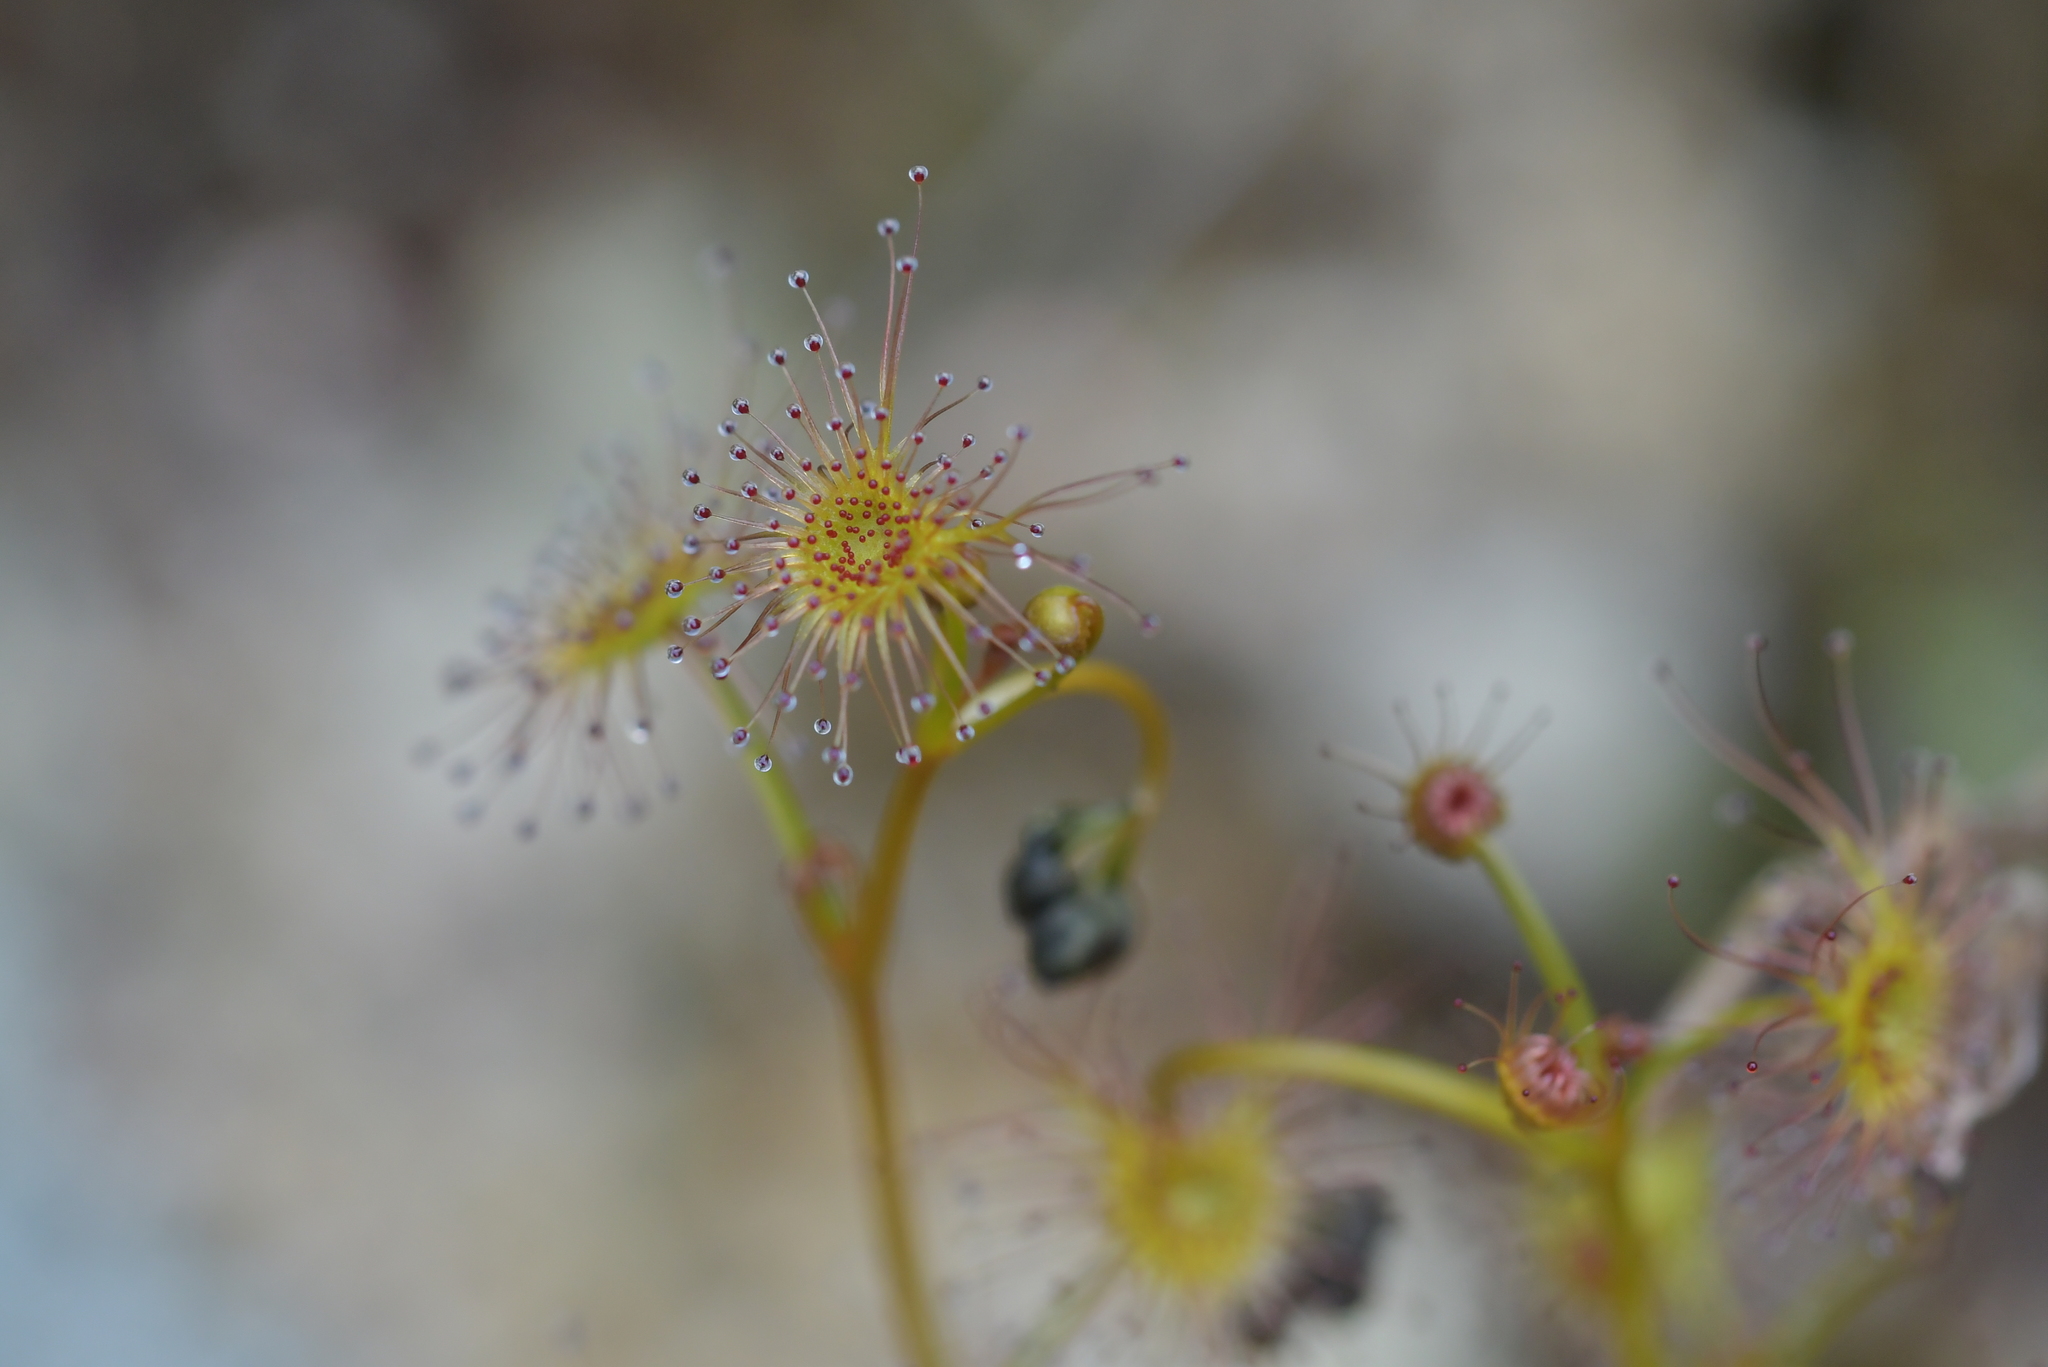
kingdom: Plantae
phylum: Tracheophyta
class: Magnoliopsida
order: Caryophyllales
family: Droseraceae
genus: Drosera
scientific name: Drosera peltata
